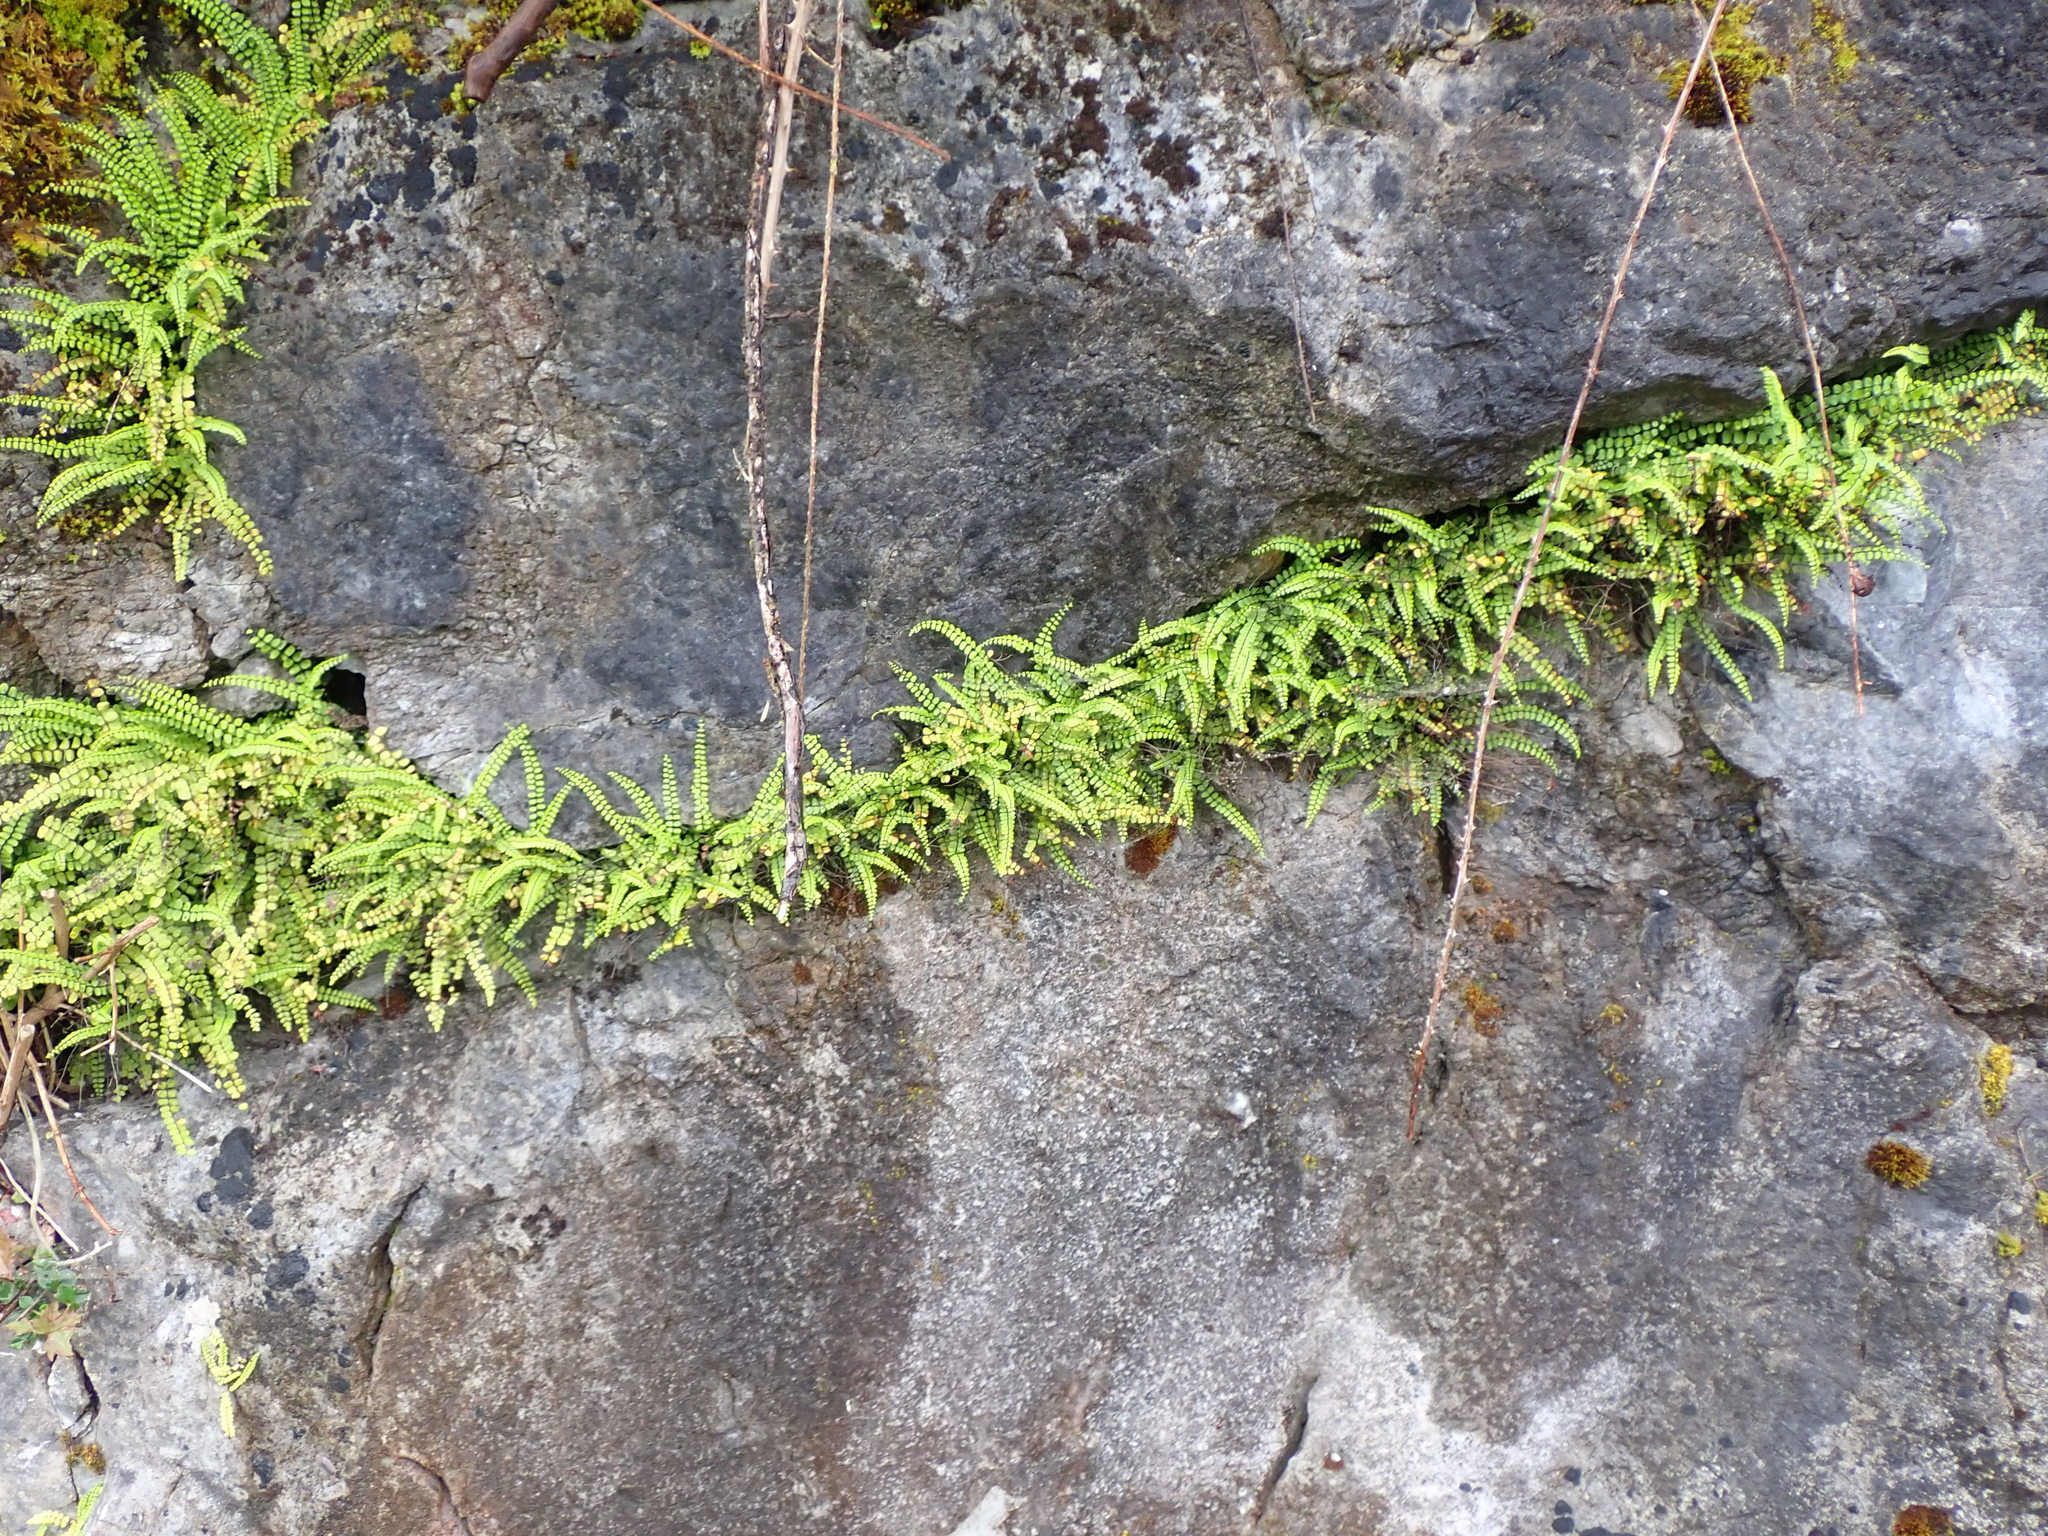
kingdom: Plantae
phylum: Tracheophyta
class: Polypodiopsida
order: Polypodiales
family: Aspleniaceae
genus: Asplenium
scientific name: Asplenium trichomanes
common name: Maidenhair spleenwort
